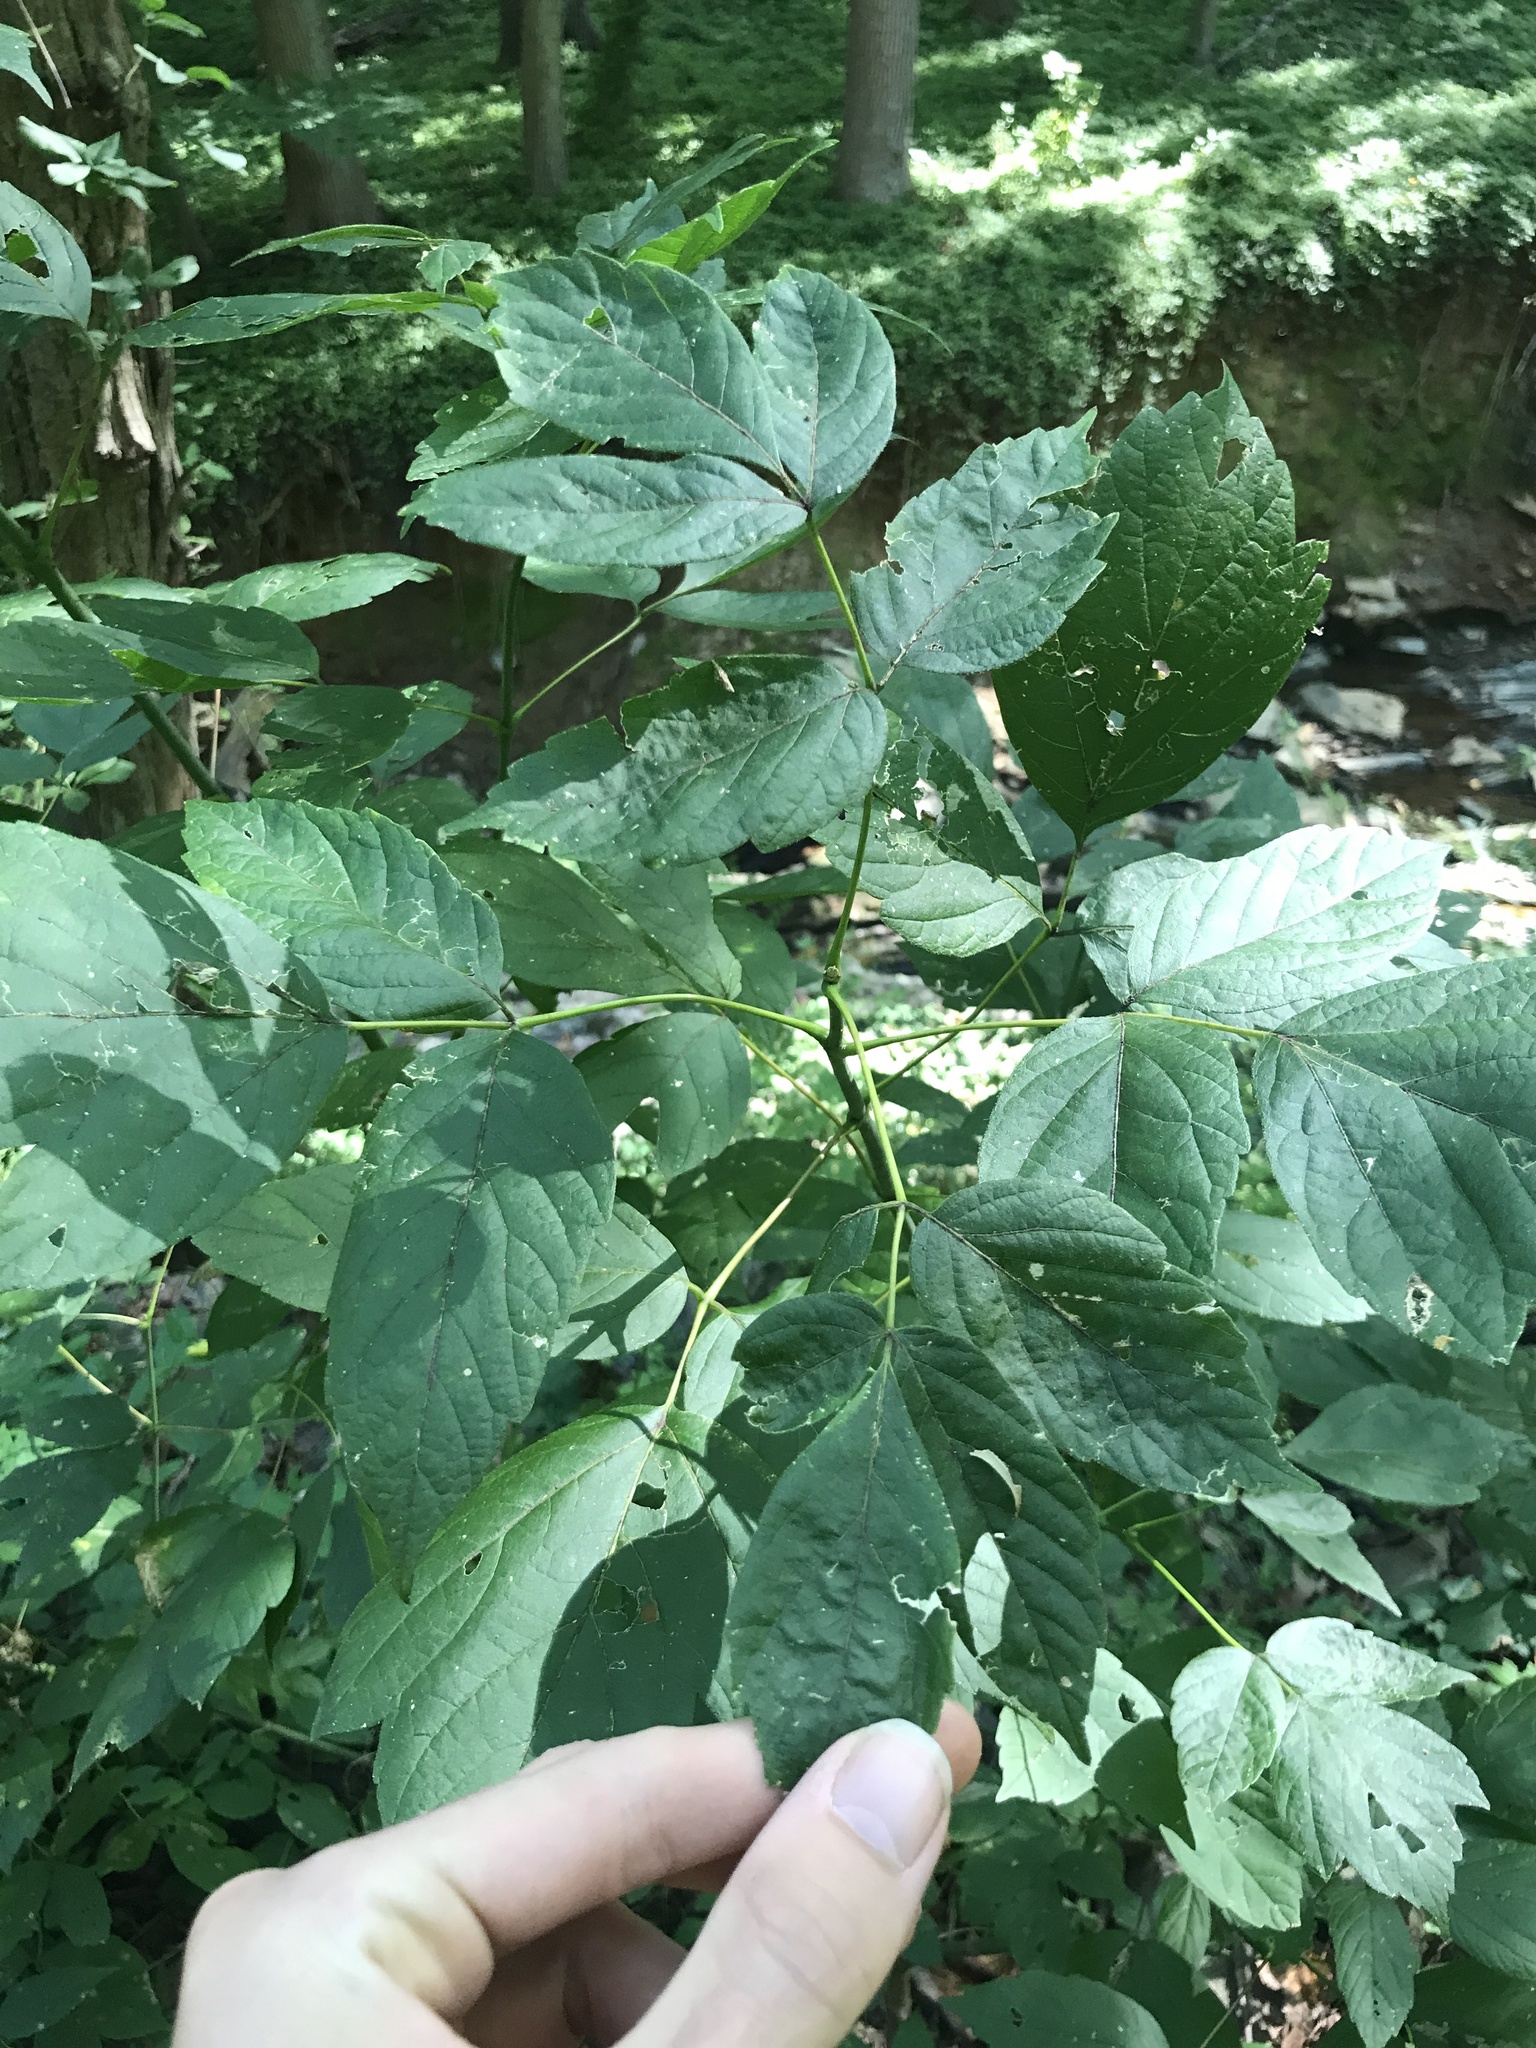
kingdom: Plantae
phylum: Tracheophyta
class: Magnoliopsida
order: Sapindales
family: Sapindaceae
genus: Acer
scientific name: Acer negundo
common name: Ashleaf maple
